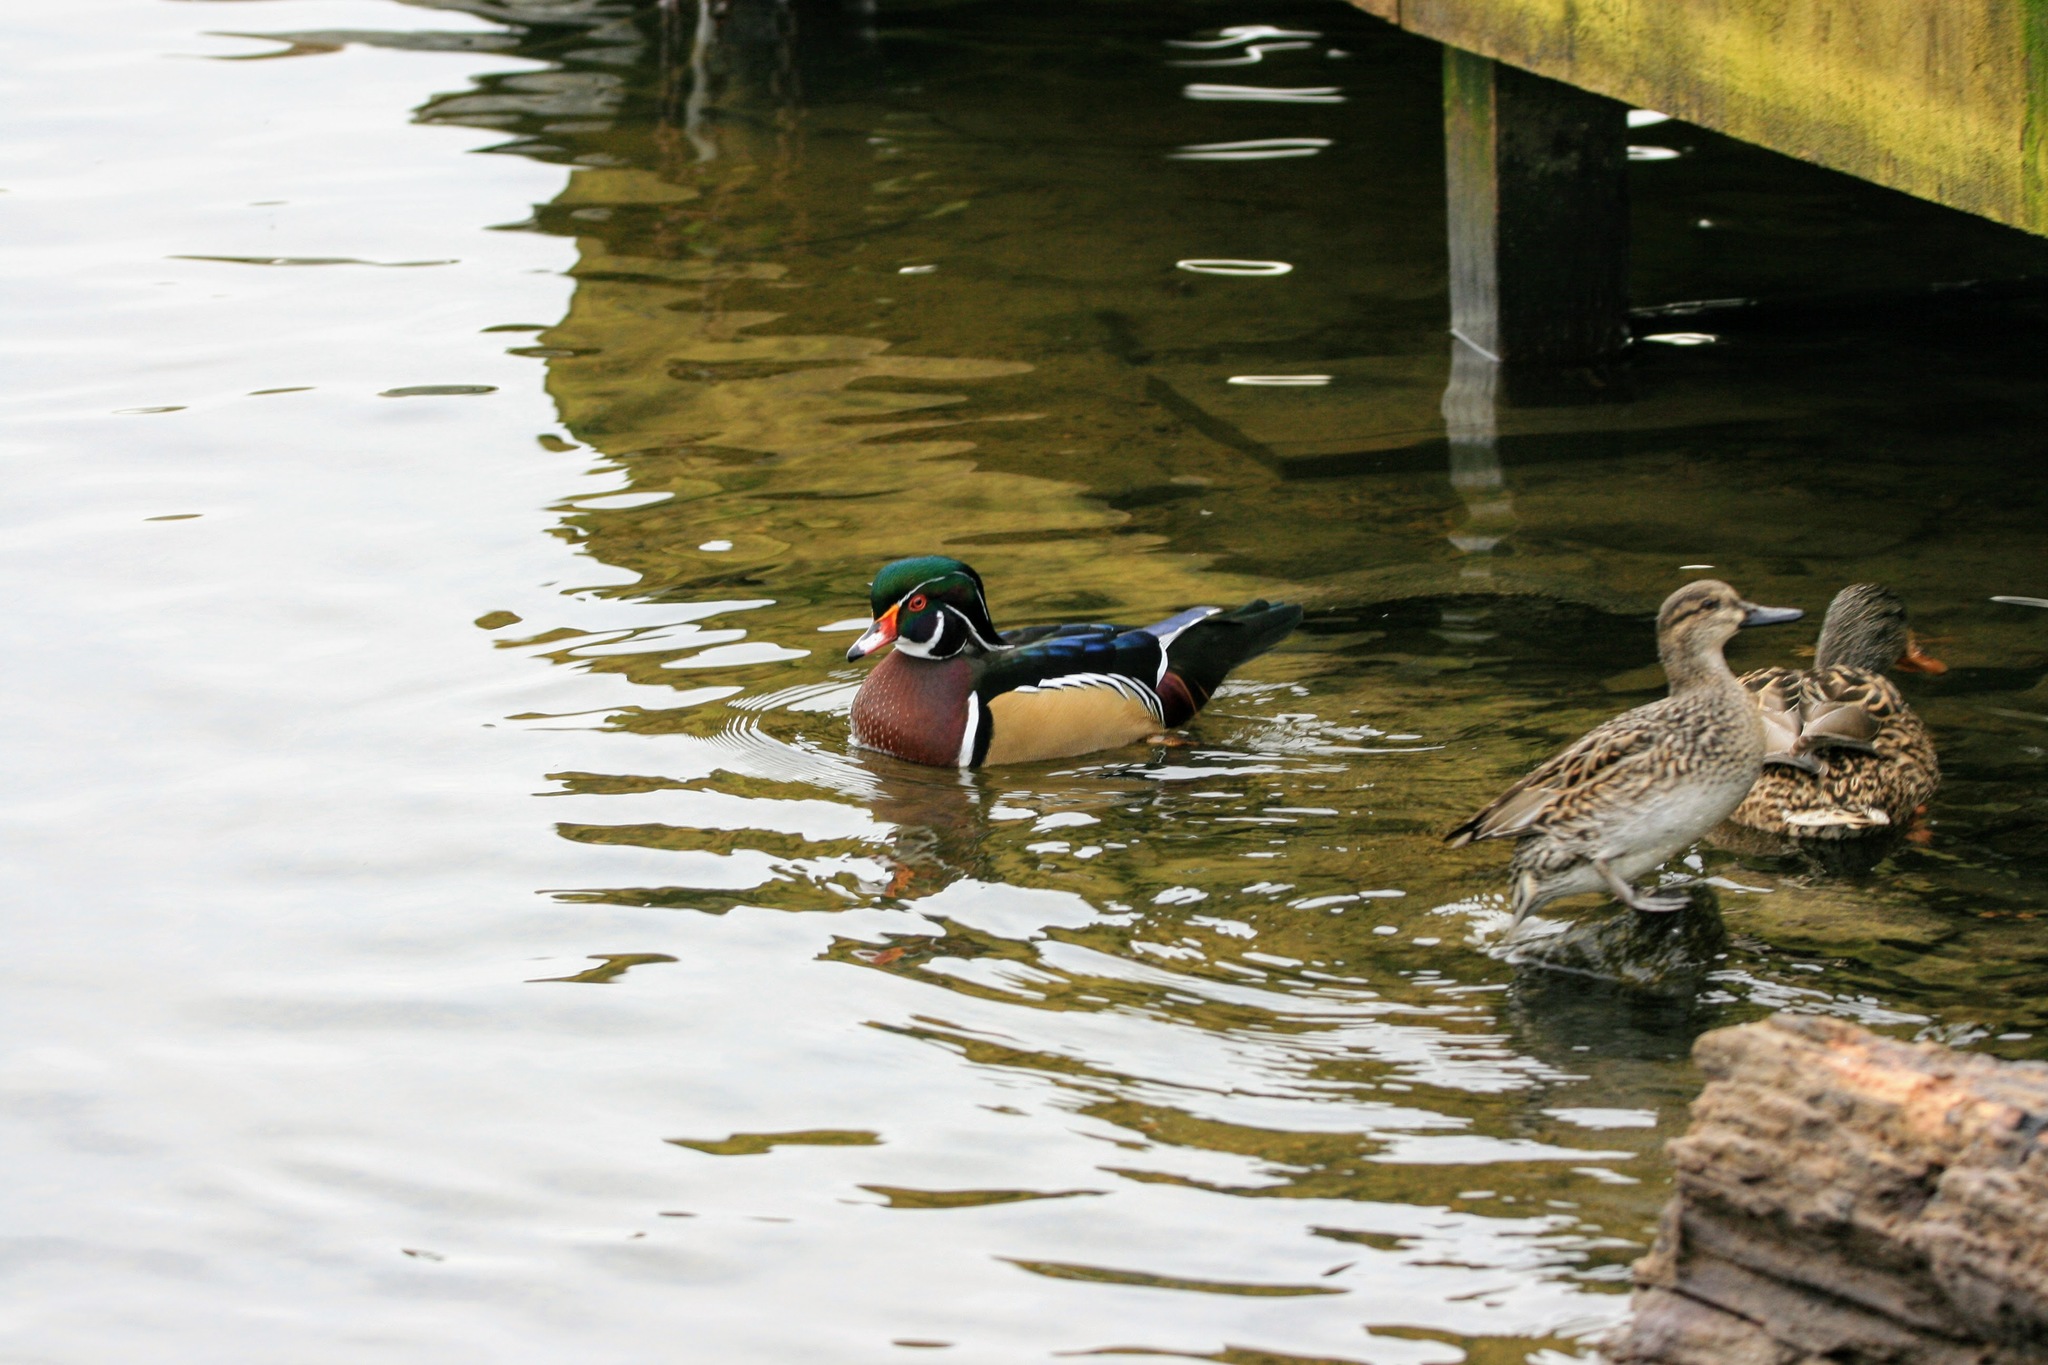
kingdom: Animalia
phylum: Chordata
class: Aves
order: Anseriformes
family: Anatidae
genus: Aix
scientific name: Aix sponsa
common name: Wood duck
